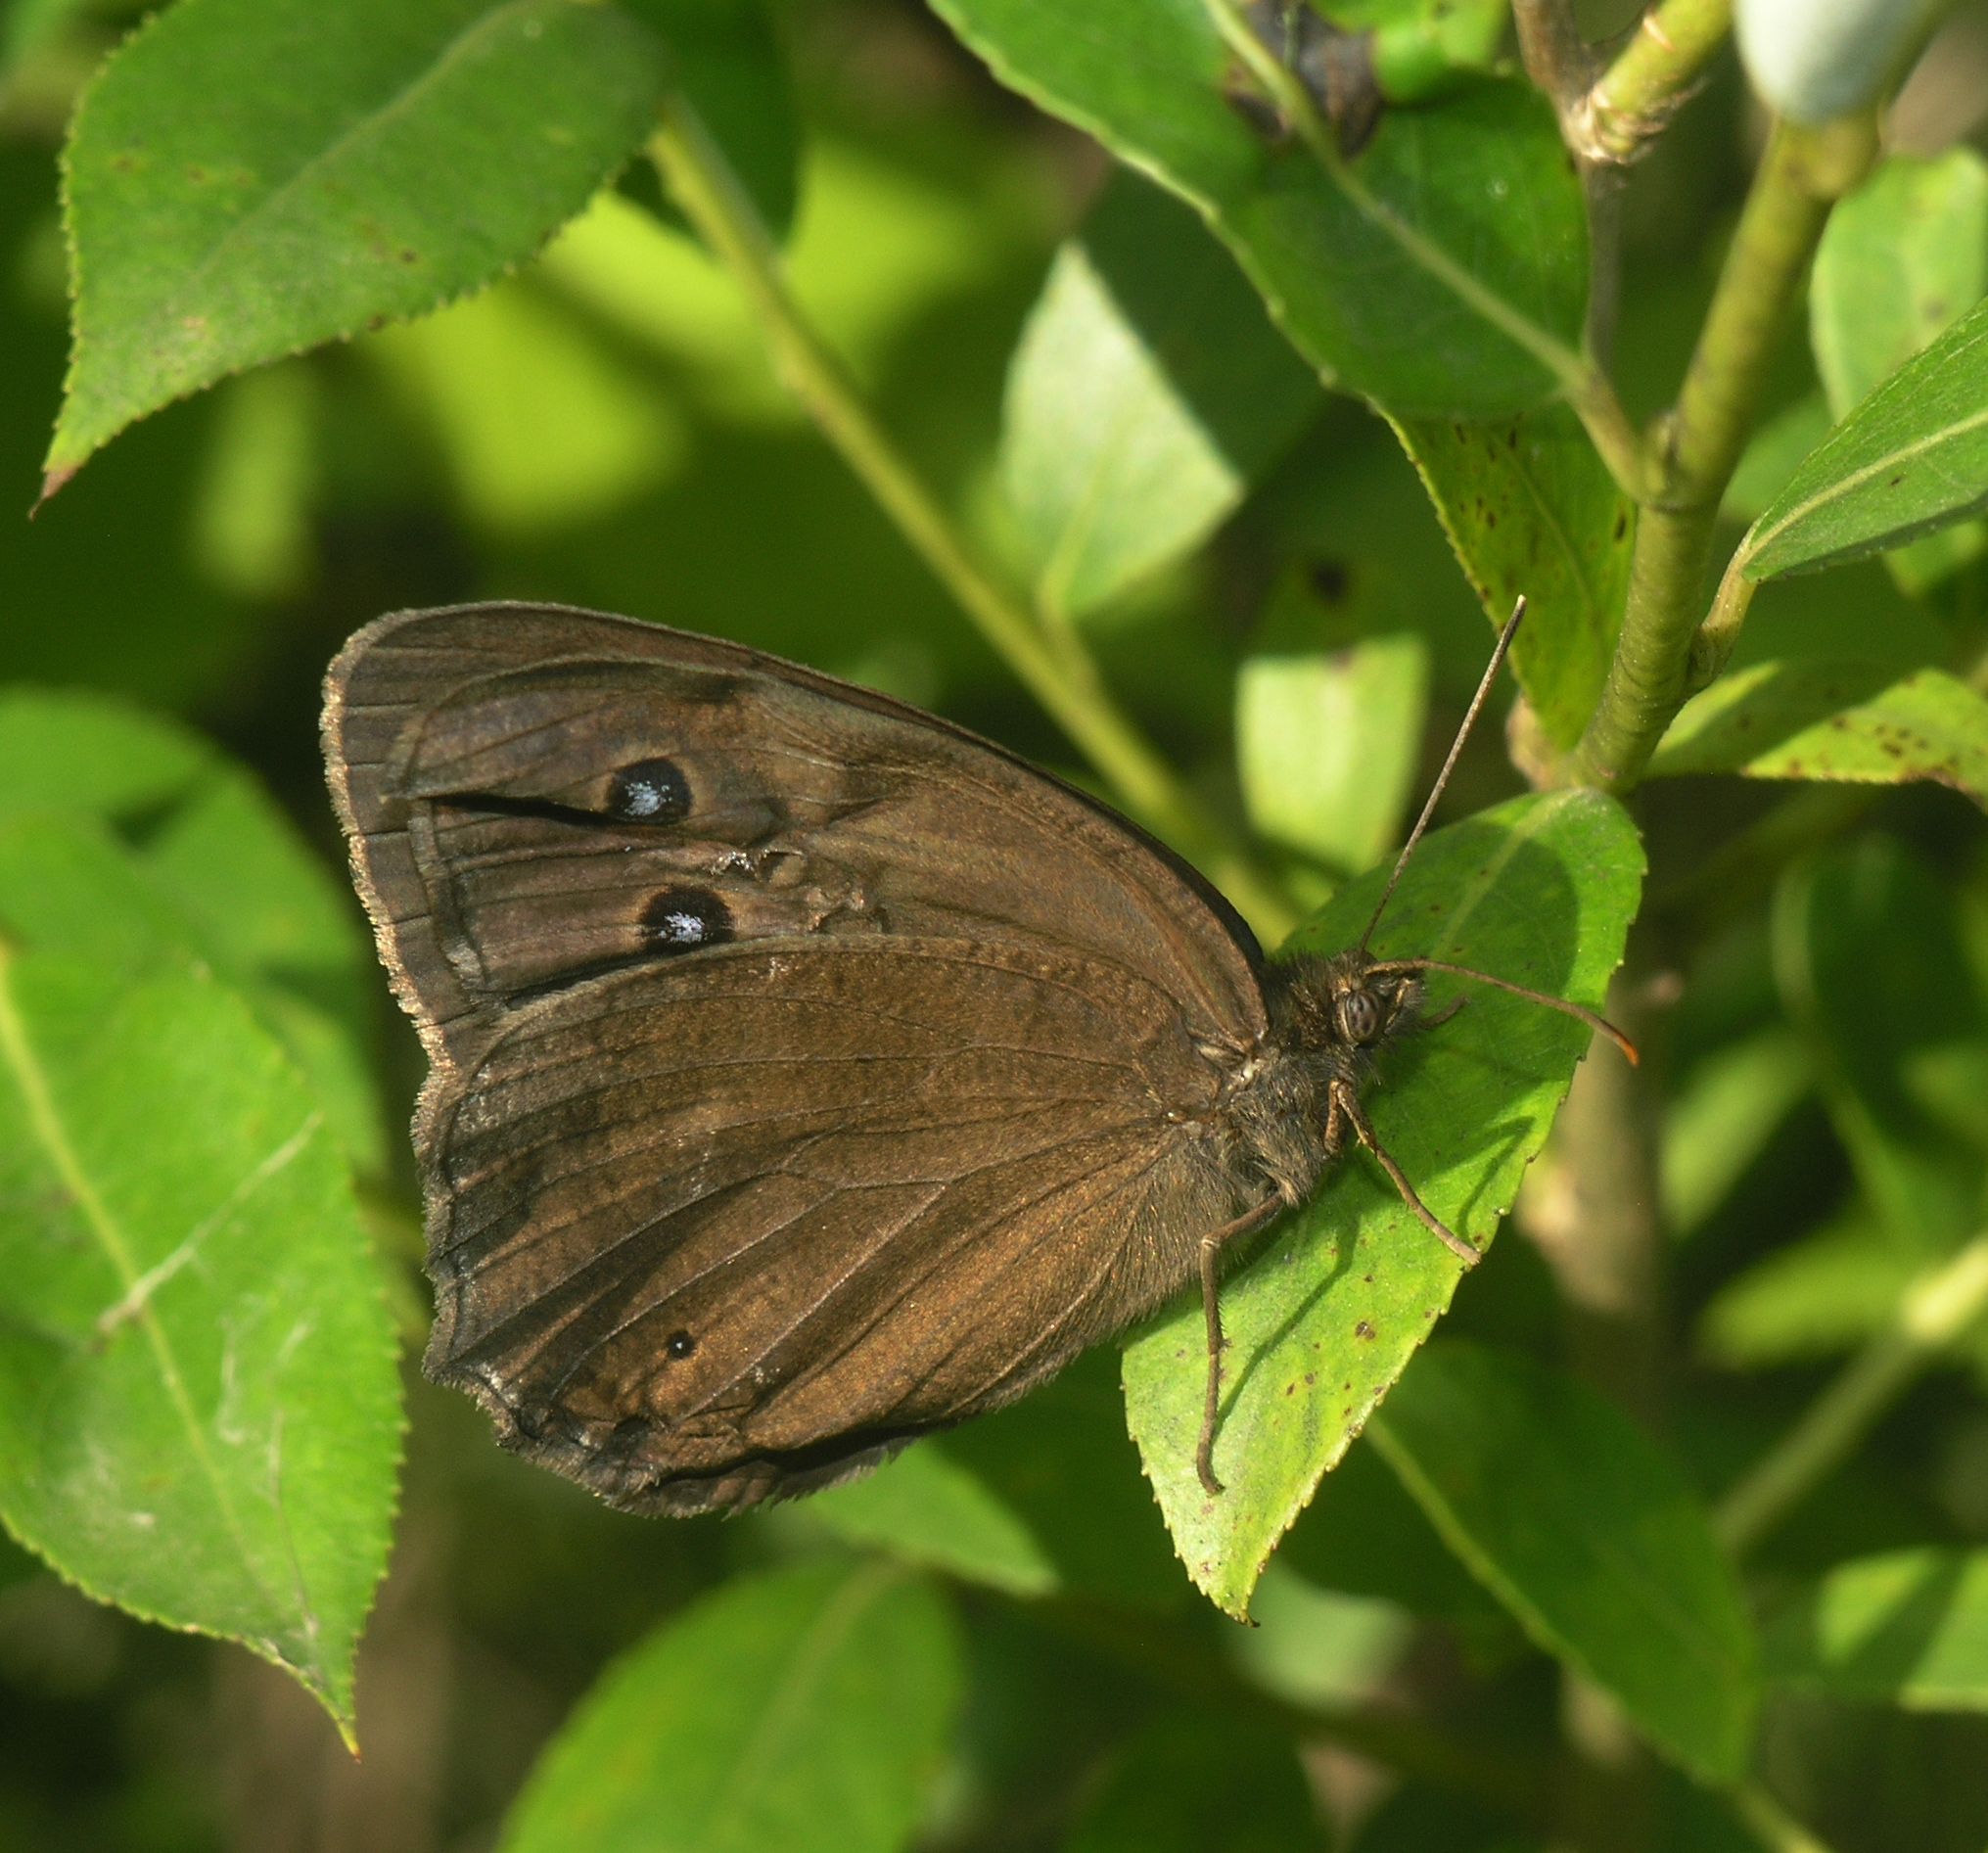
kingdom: Animalia
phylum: Arthropoda
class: Insecta
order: Lepidoptera
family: Nymphalidae
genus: Minois
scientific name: Minois dryas
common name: Dryad
